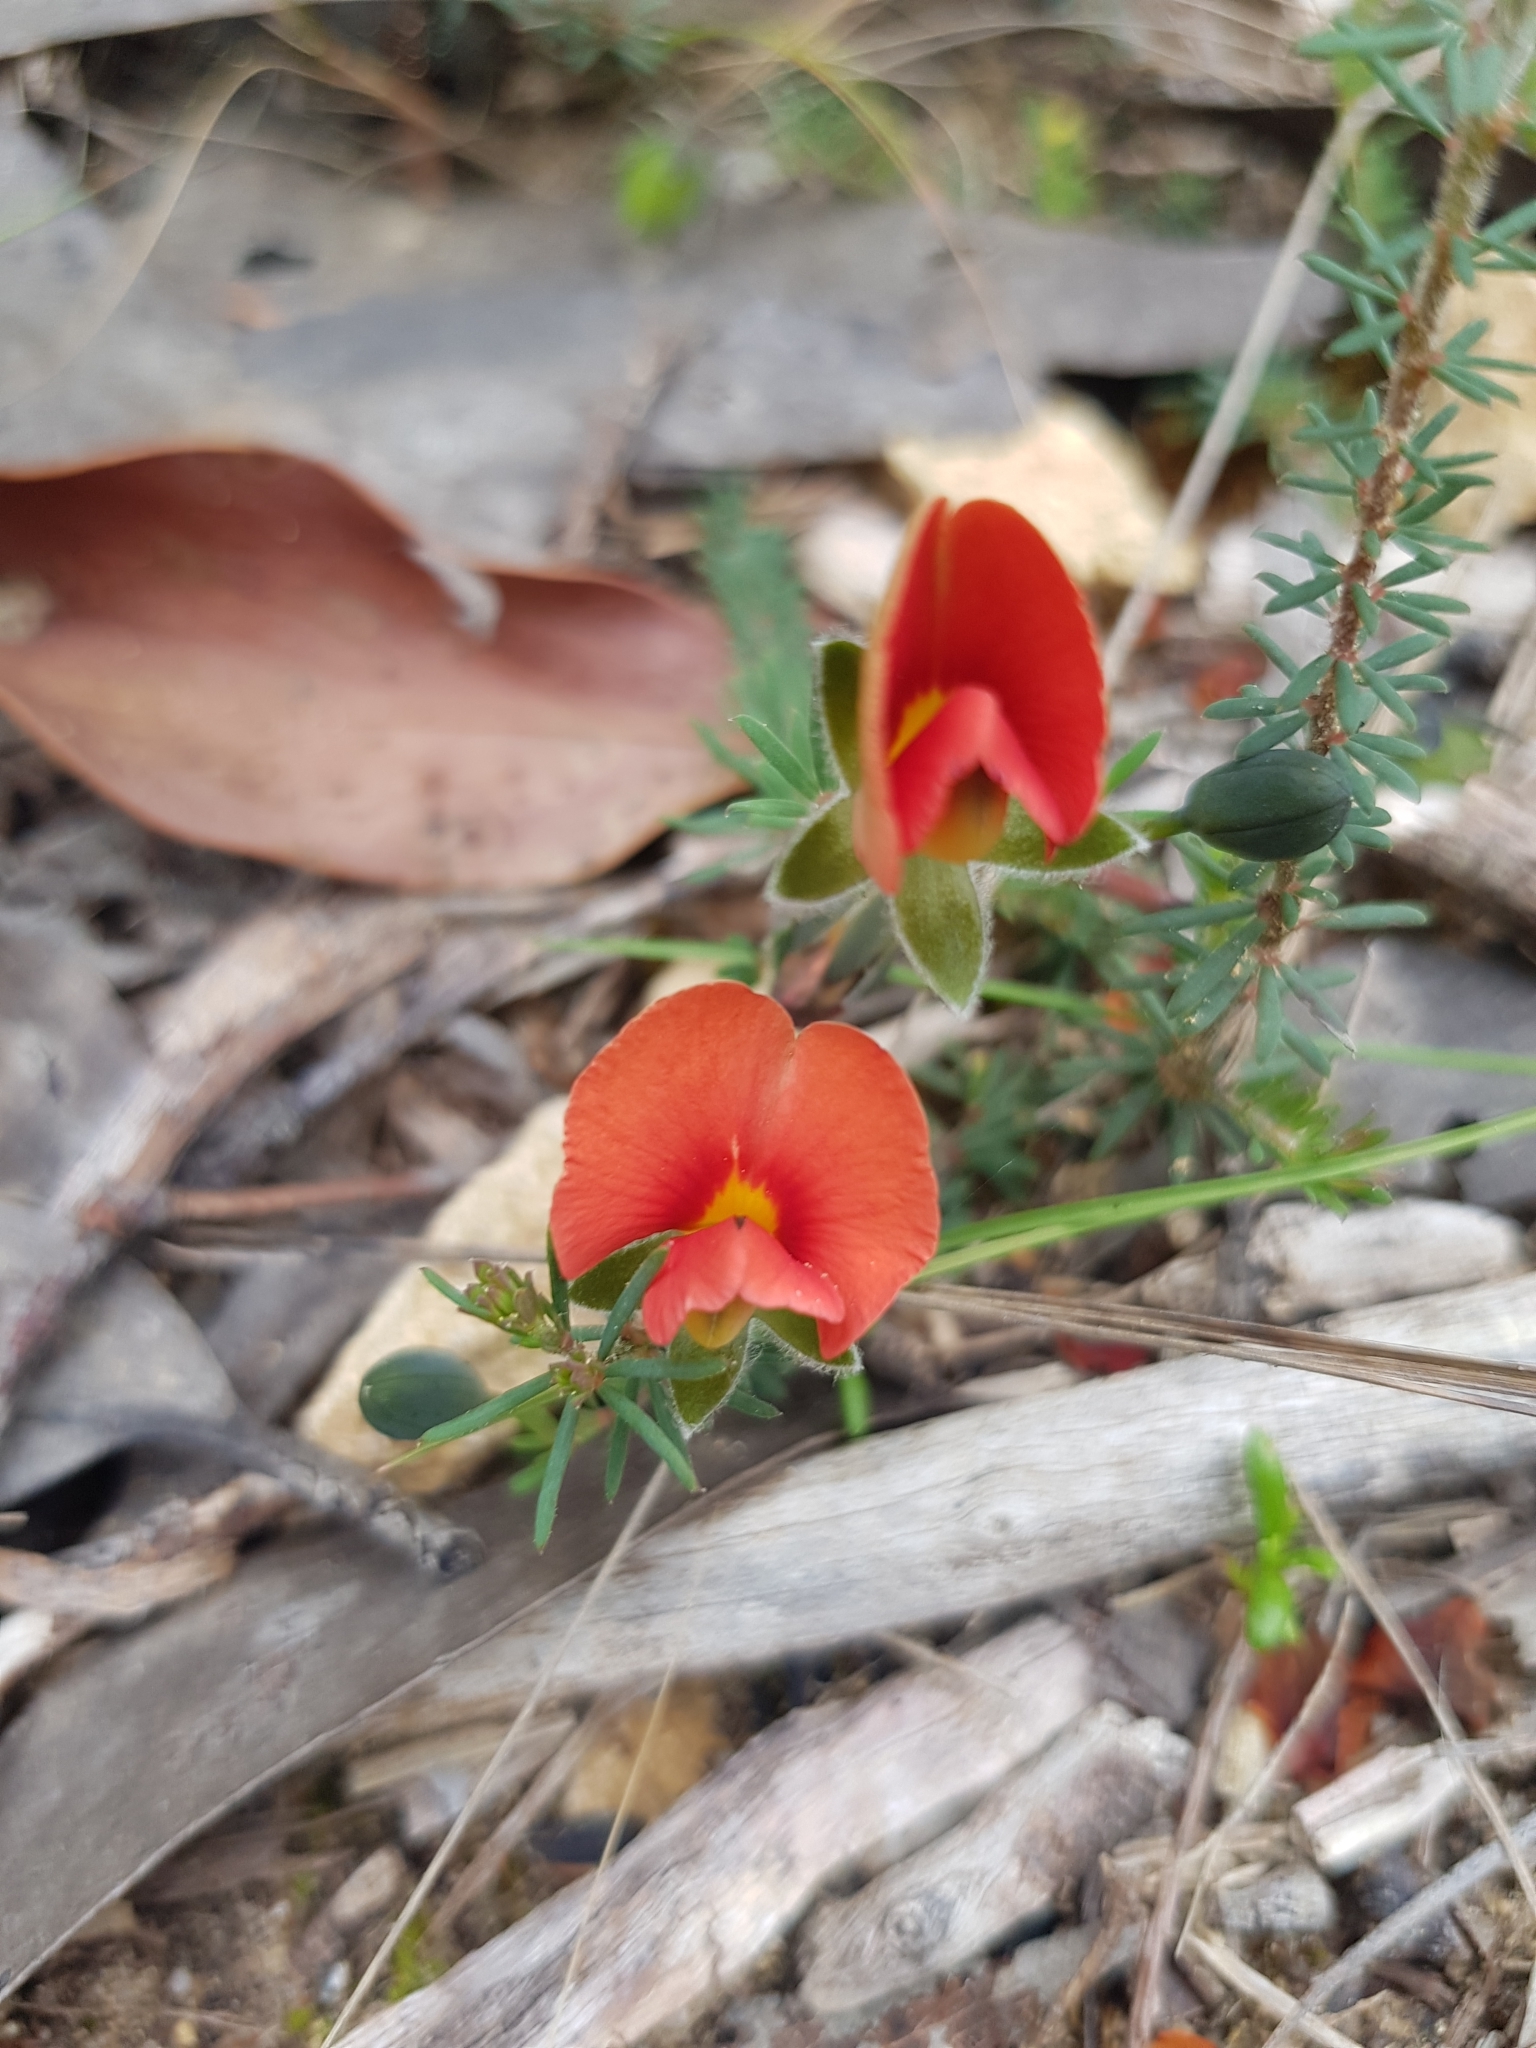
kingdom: Plantae
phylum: Tracheophyta
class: Magnoliopsida
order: Fabales
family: Fabaceae
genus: Gompholobium
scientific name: Gompholobium ecostatum
